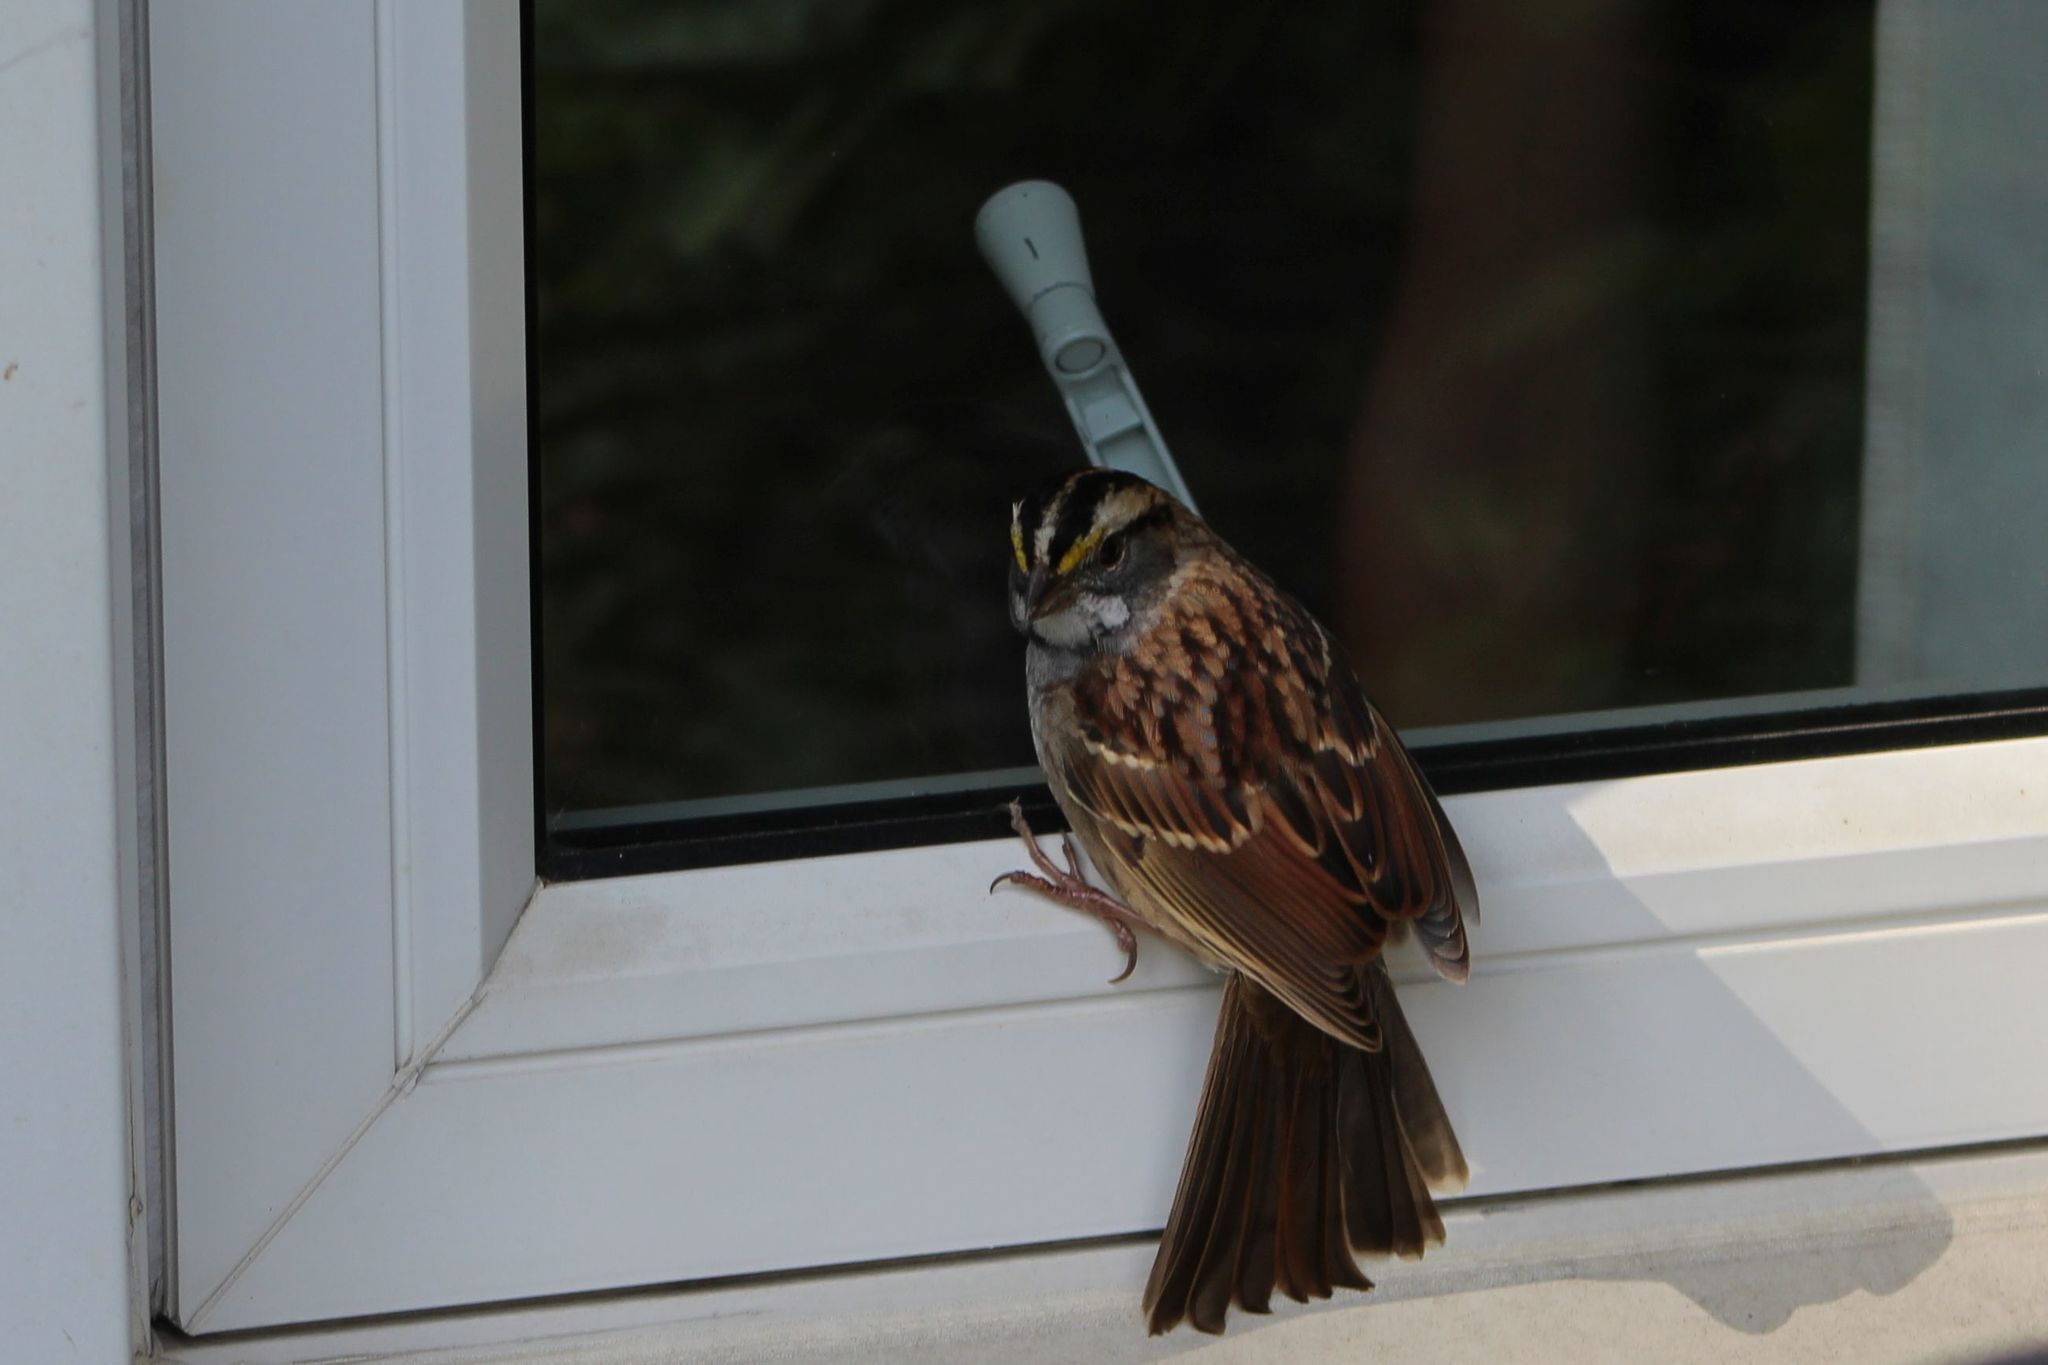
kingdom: Animalia
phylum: Chordata
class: Aves
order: Passeriformes
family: Passerellidae
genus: Zonotrichia
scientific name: Zonotrichia albicollis
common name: White-throated sparrow
